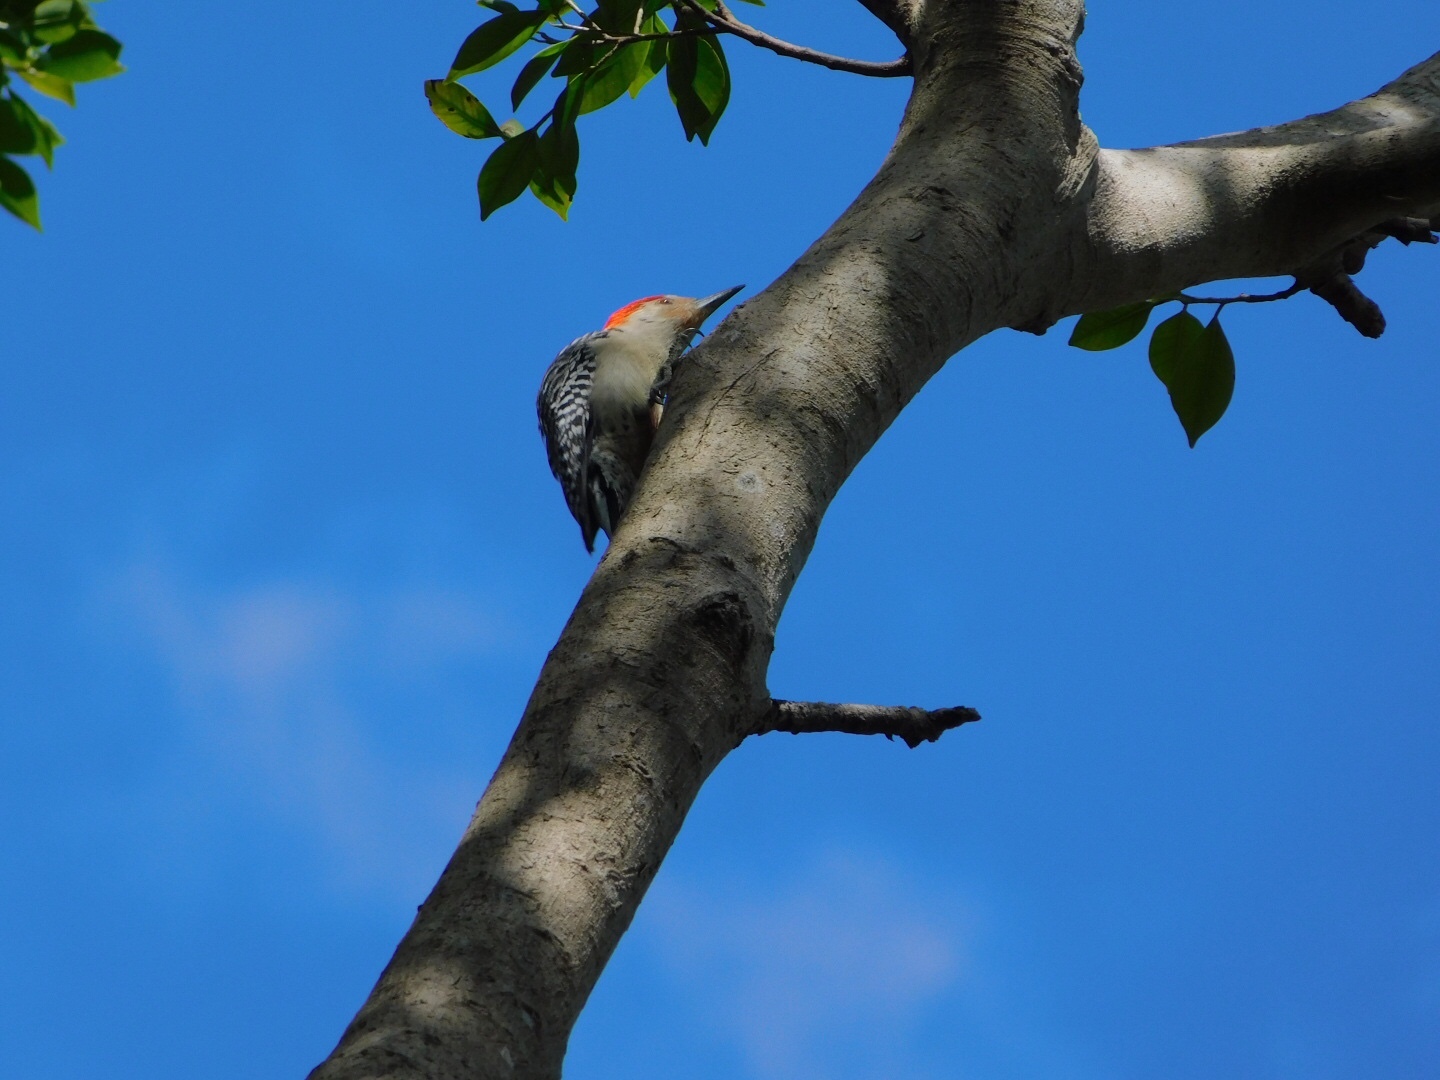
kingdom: Animalia
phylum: Chordata
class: Aves
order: Piciformes
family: Picidae
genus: Melanerpes
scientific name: Melanerpes carolinus
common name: Red-bellied woodpecker
